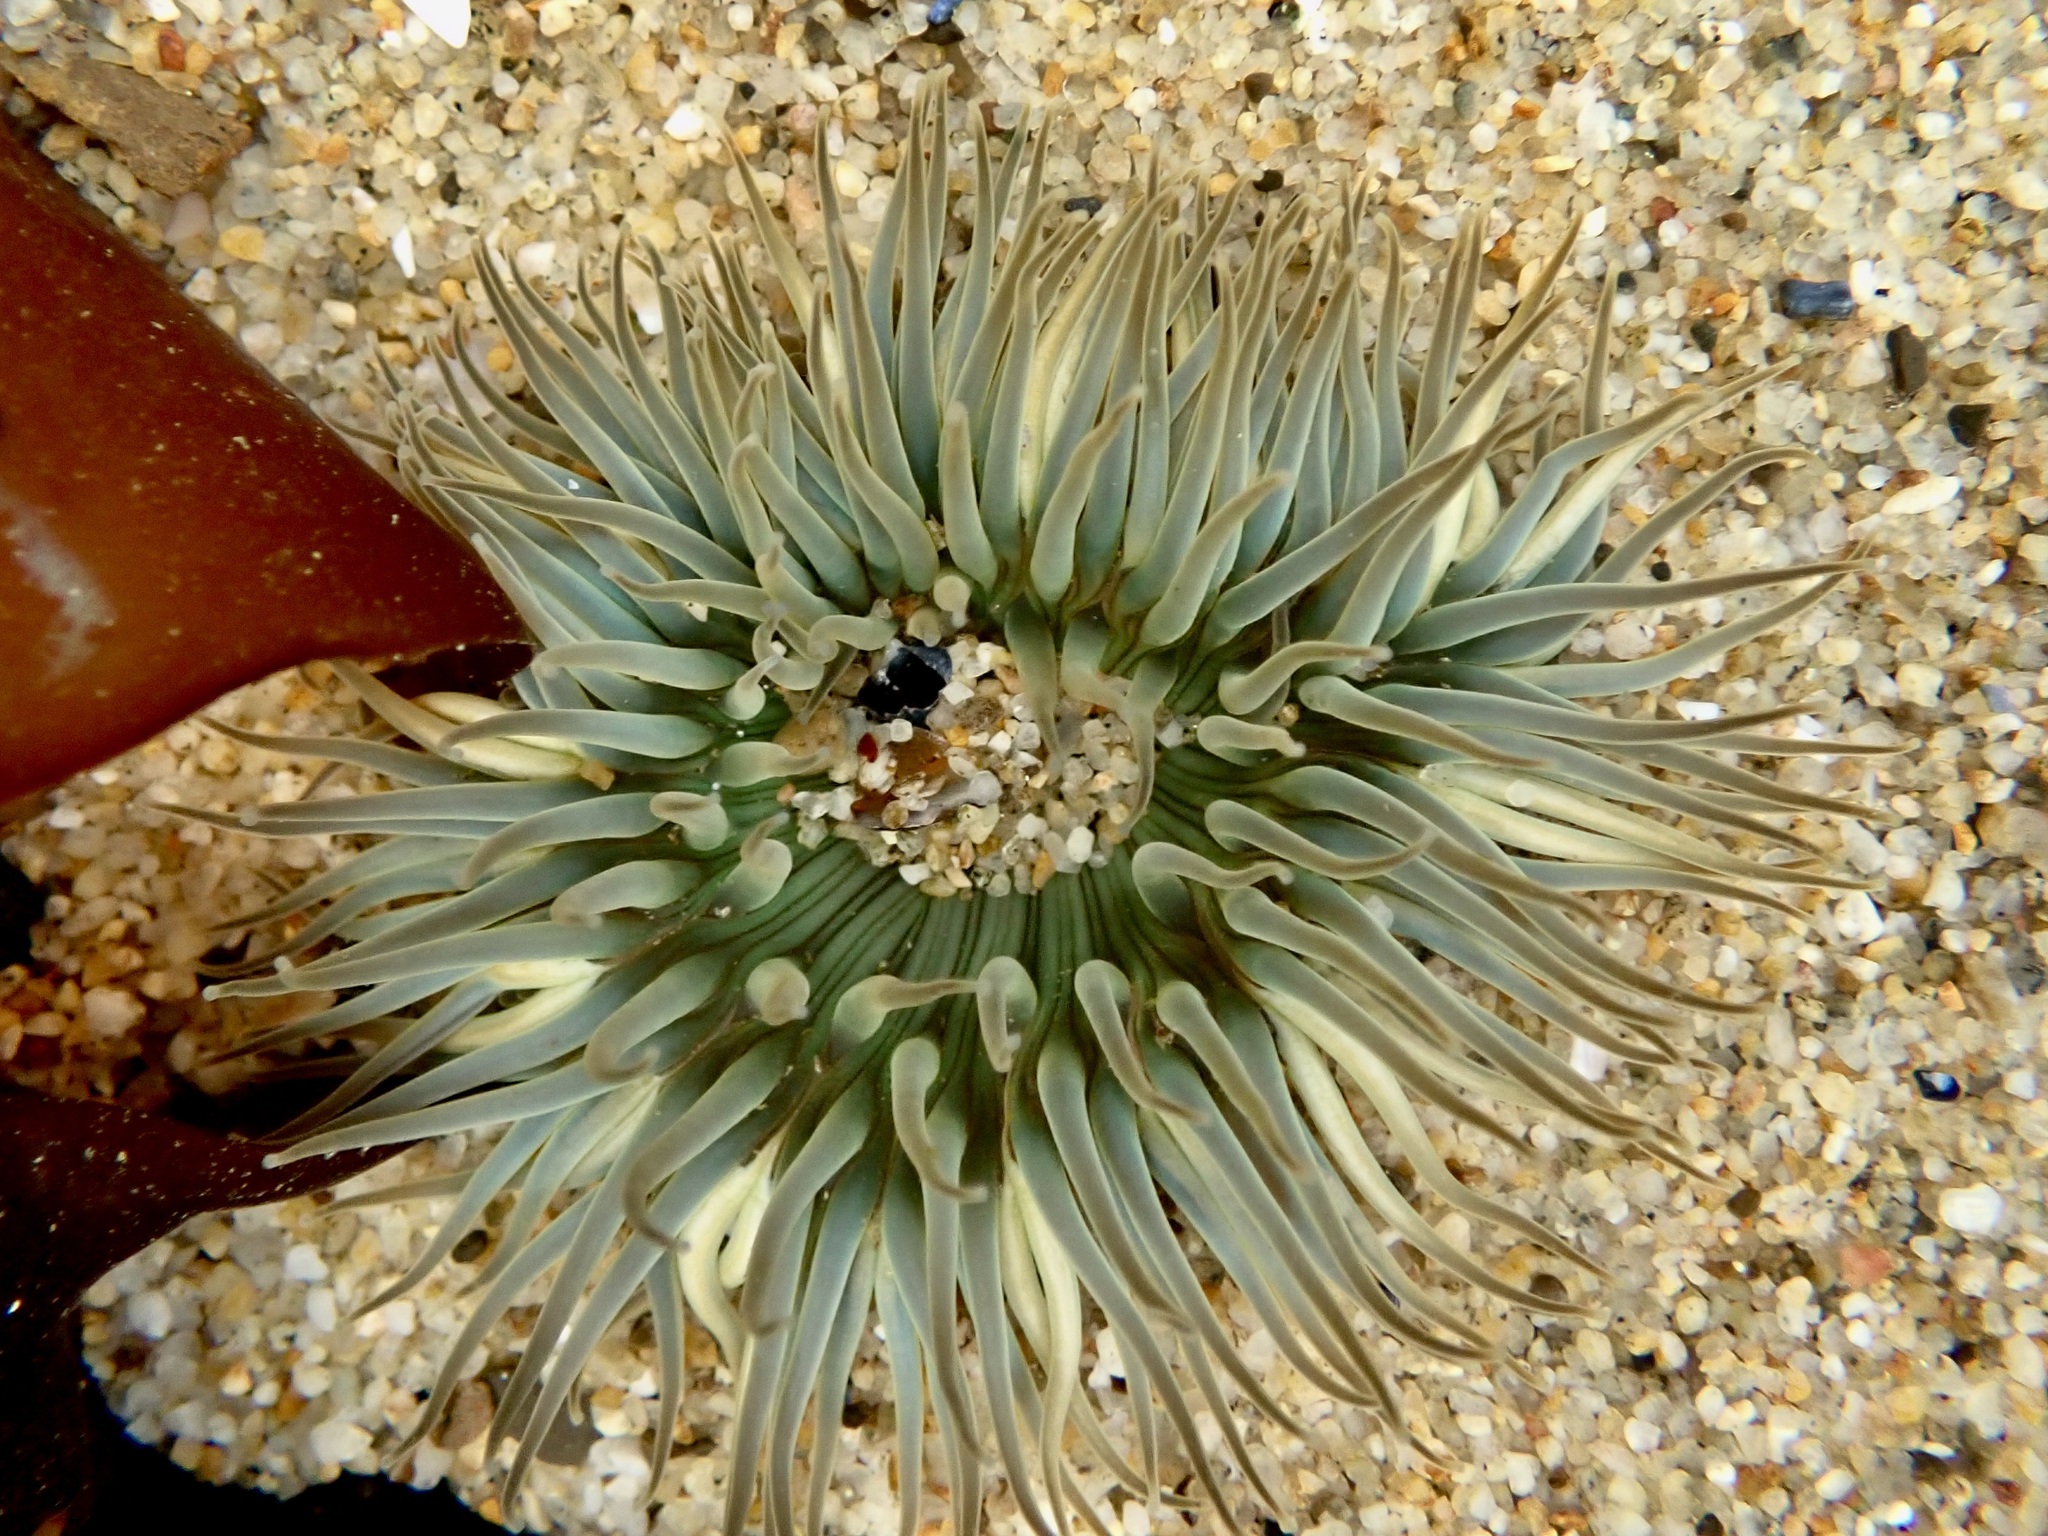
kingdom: Animalia
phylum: Cnidaria
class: Anthozoa
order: Actiniaria
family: Actiniidae
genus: Anthopleura
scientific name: Anthopleura sola
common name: Sun anemone
